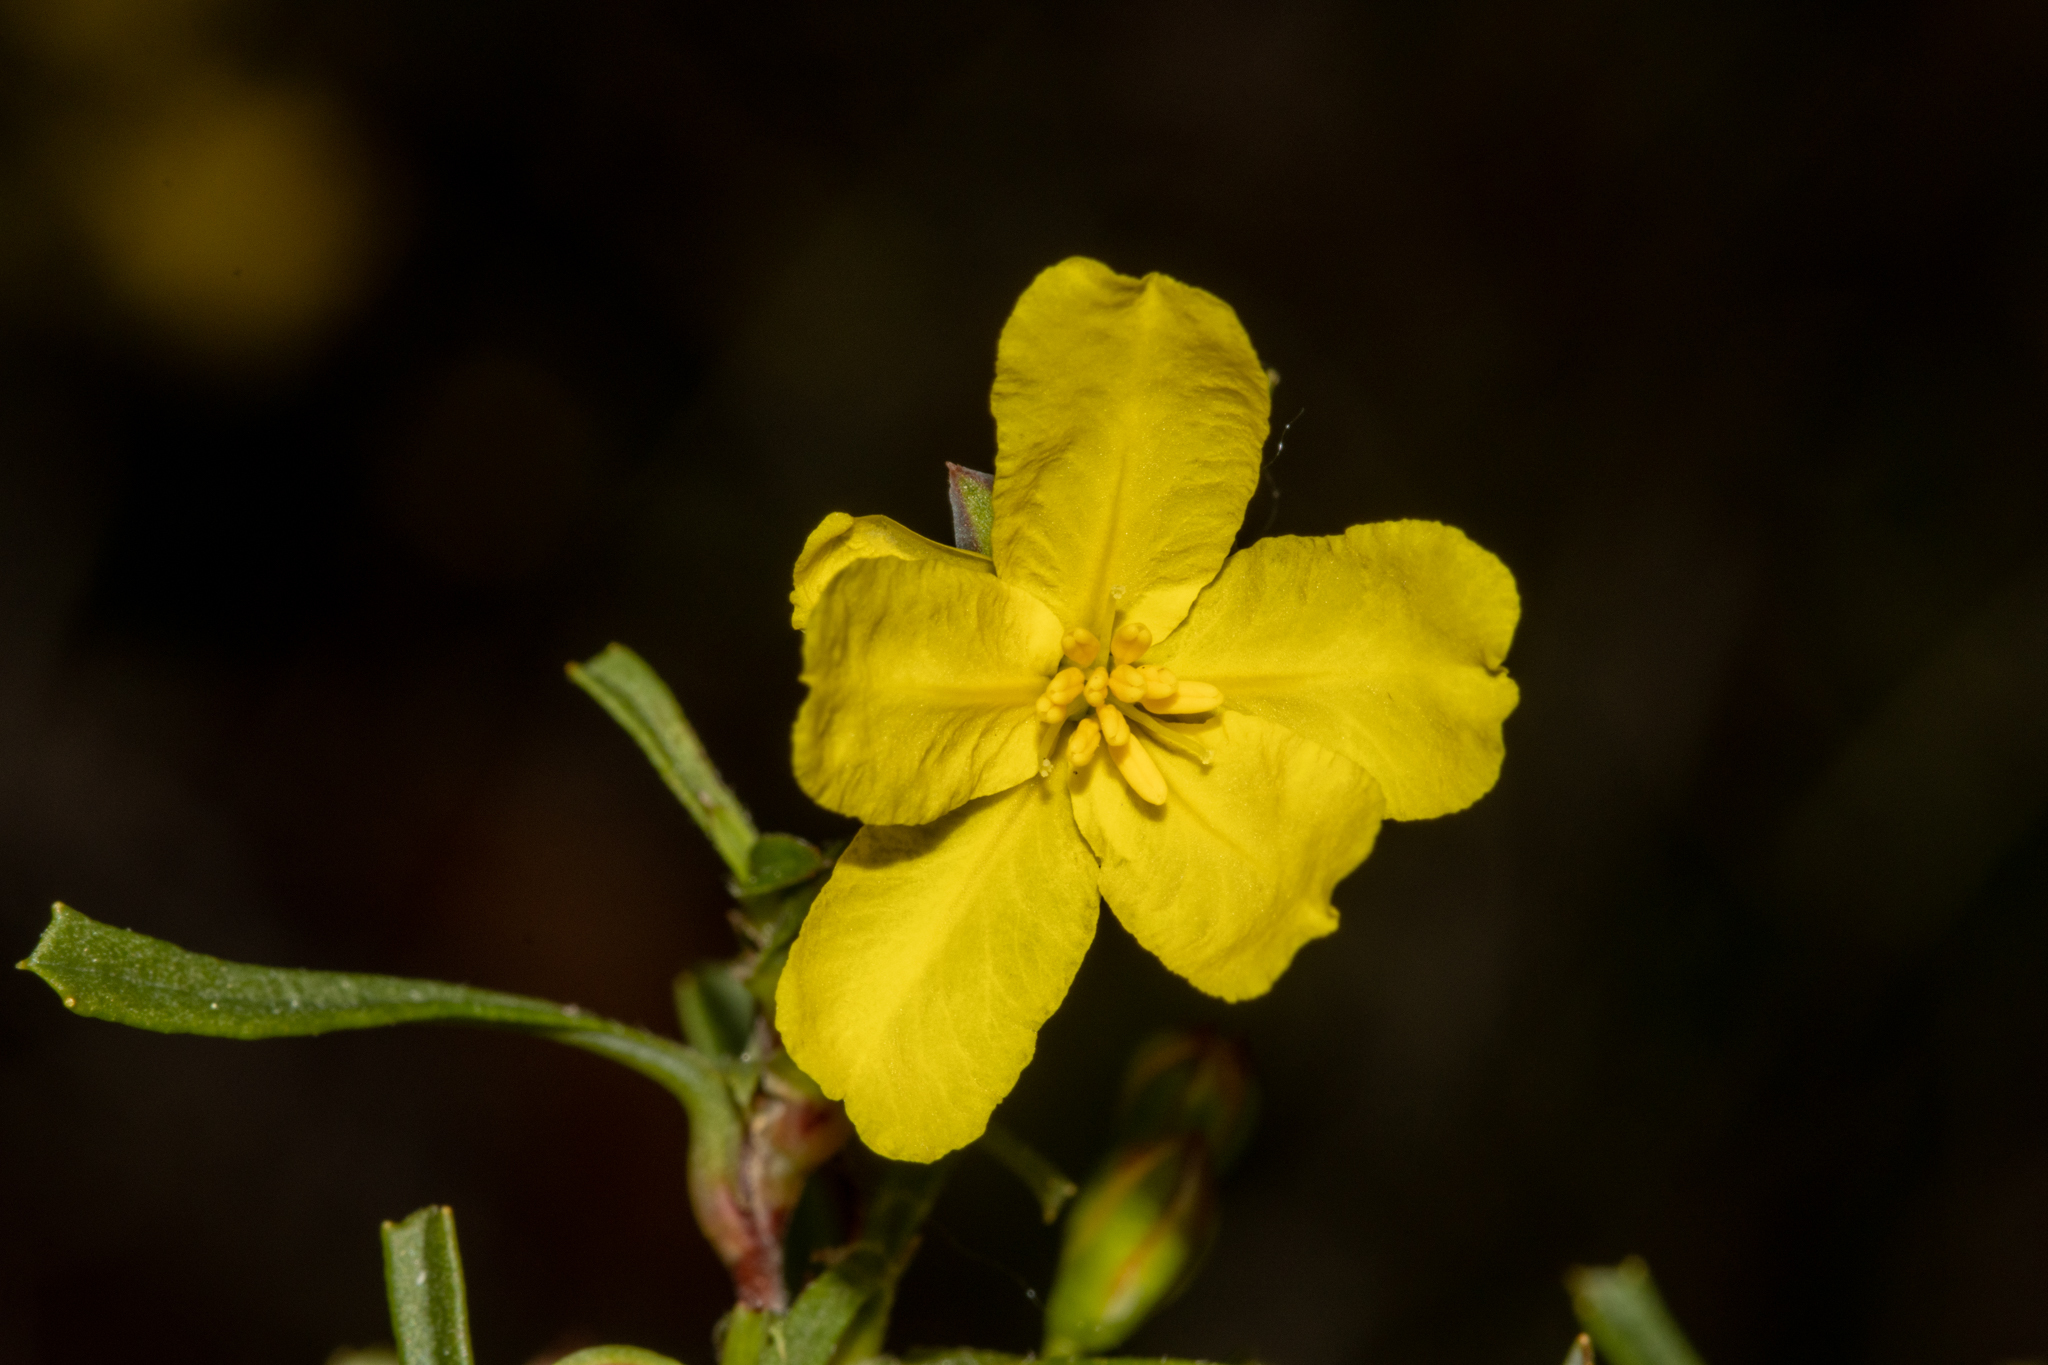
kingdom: Plantae
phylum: Tracheophyta
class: Magnoliopsida
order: Dilleniales
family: Dilleniaceae
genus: Hibbertia
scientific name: Hibbertia racemosa
